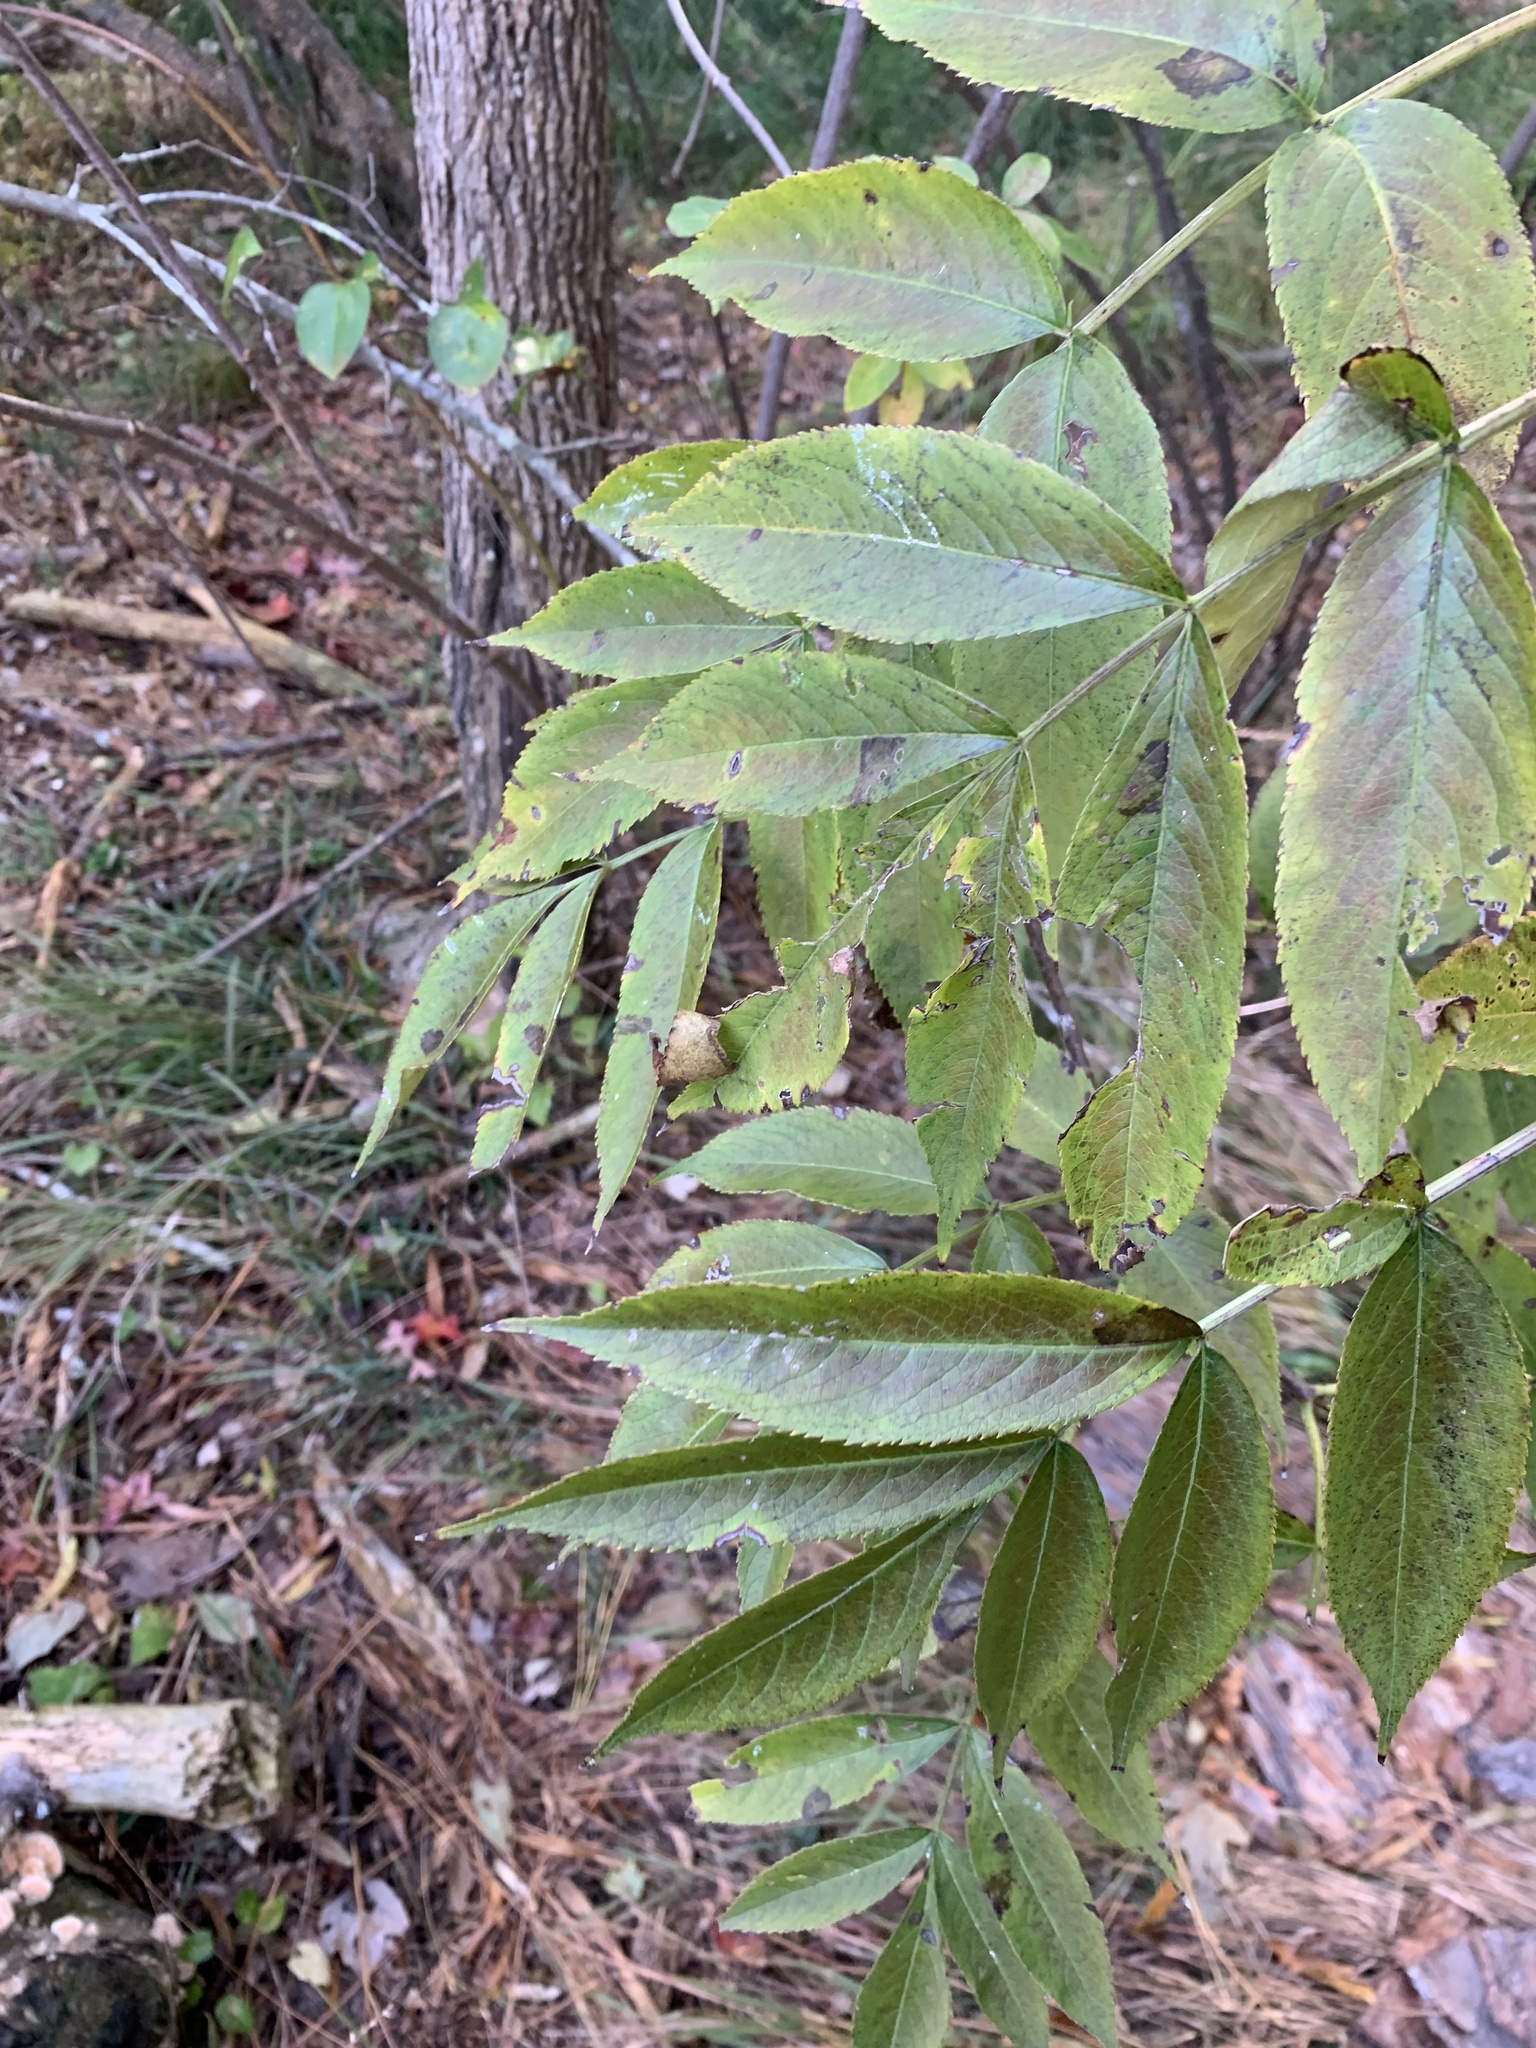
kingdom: Plantae
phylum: Tracheophyta
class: Magnoliopsida
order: Dipsacales
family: Viburnaceae
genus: Sambucus
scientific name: Sambucus canadensis
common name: American elder
